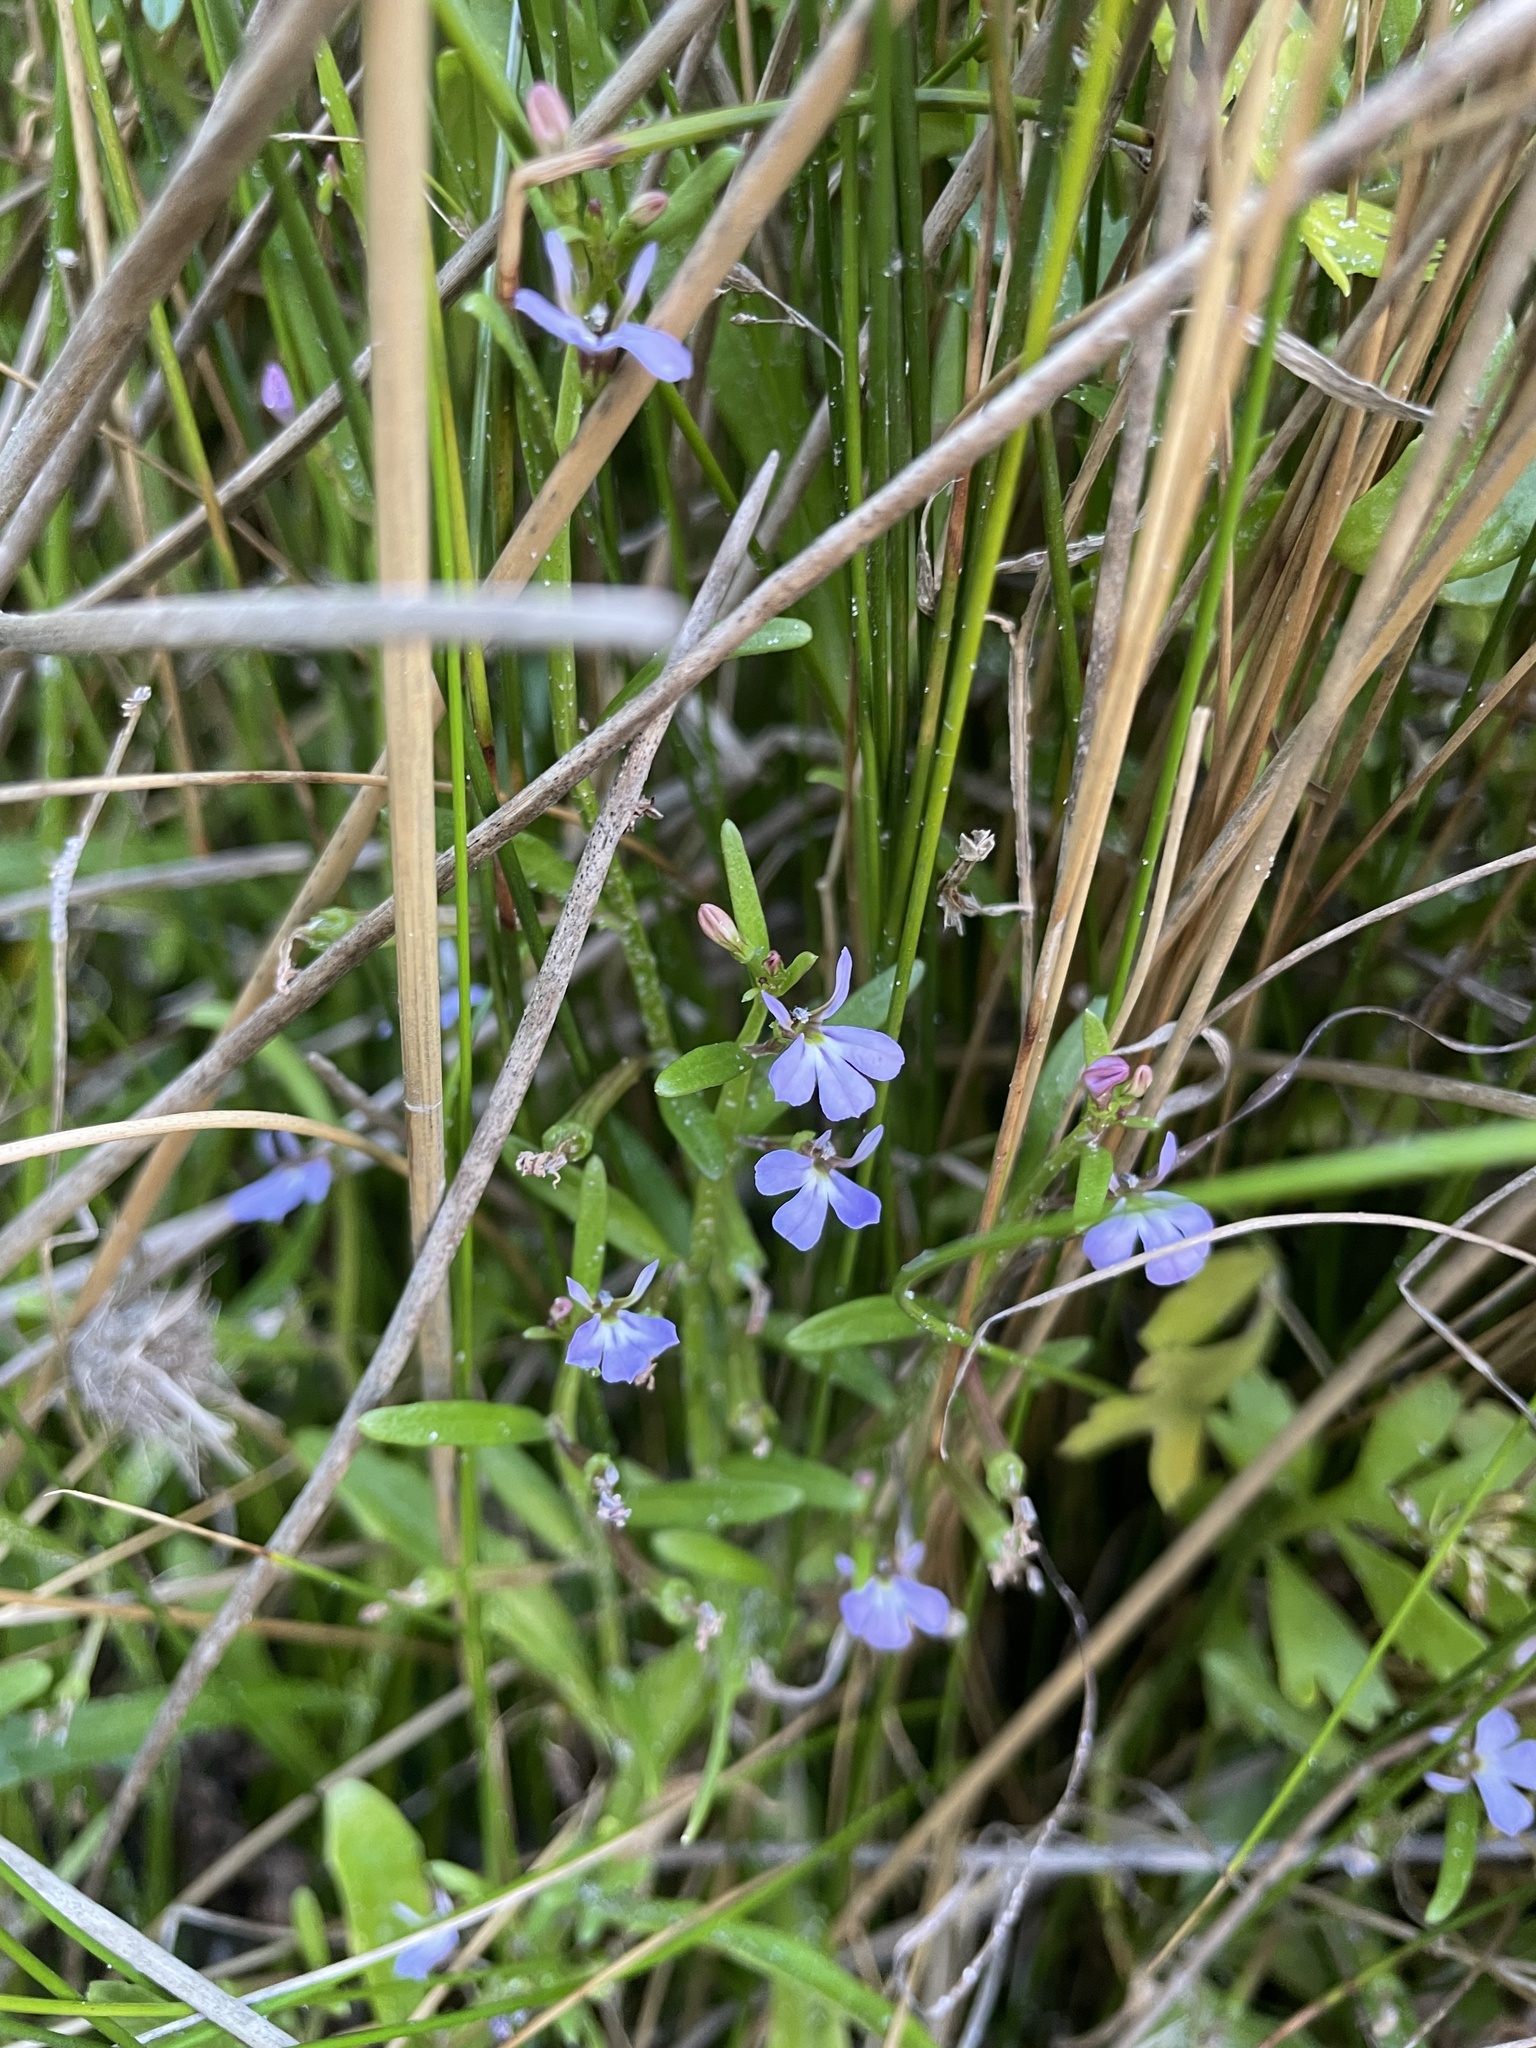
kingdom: Plantae
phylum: Tracheophyta
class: Magnoliopsida
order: Asterales
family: Campanulaceae
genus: Lobelia
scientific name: Lobelia anceps
